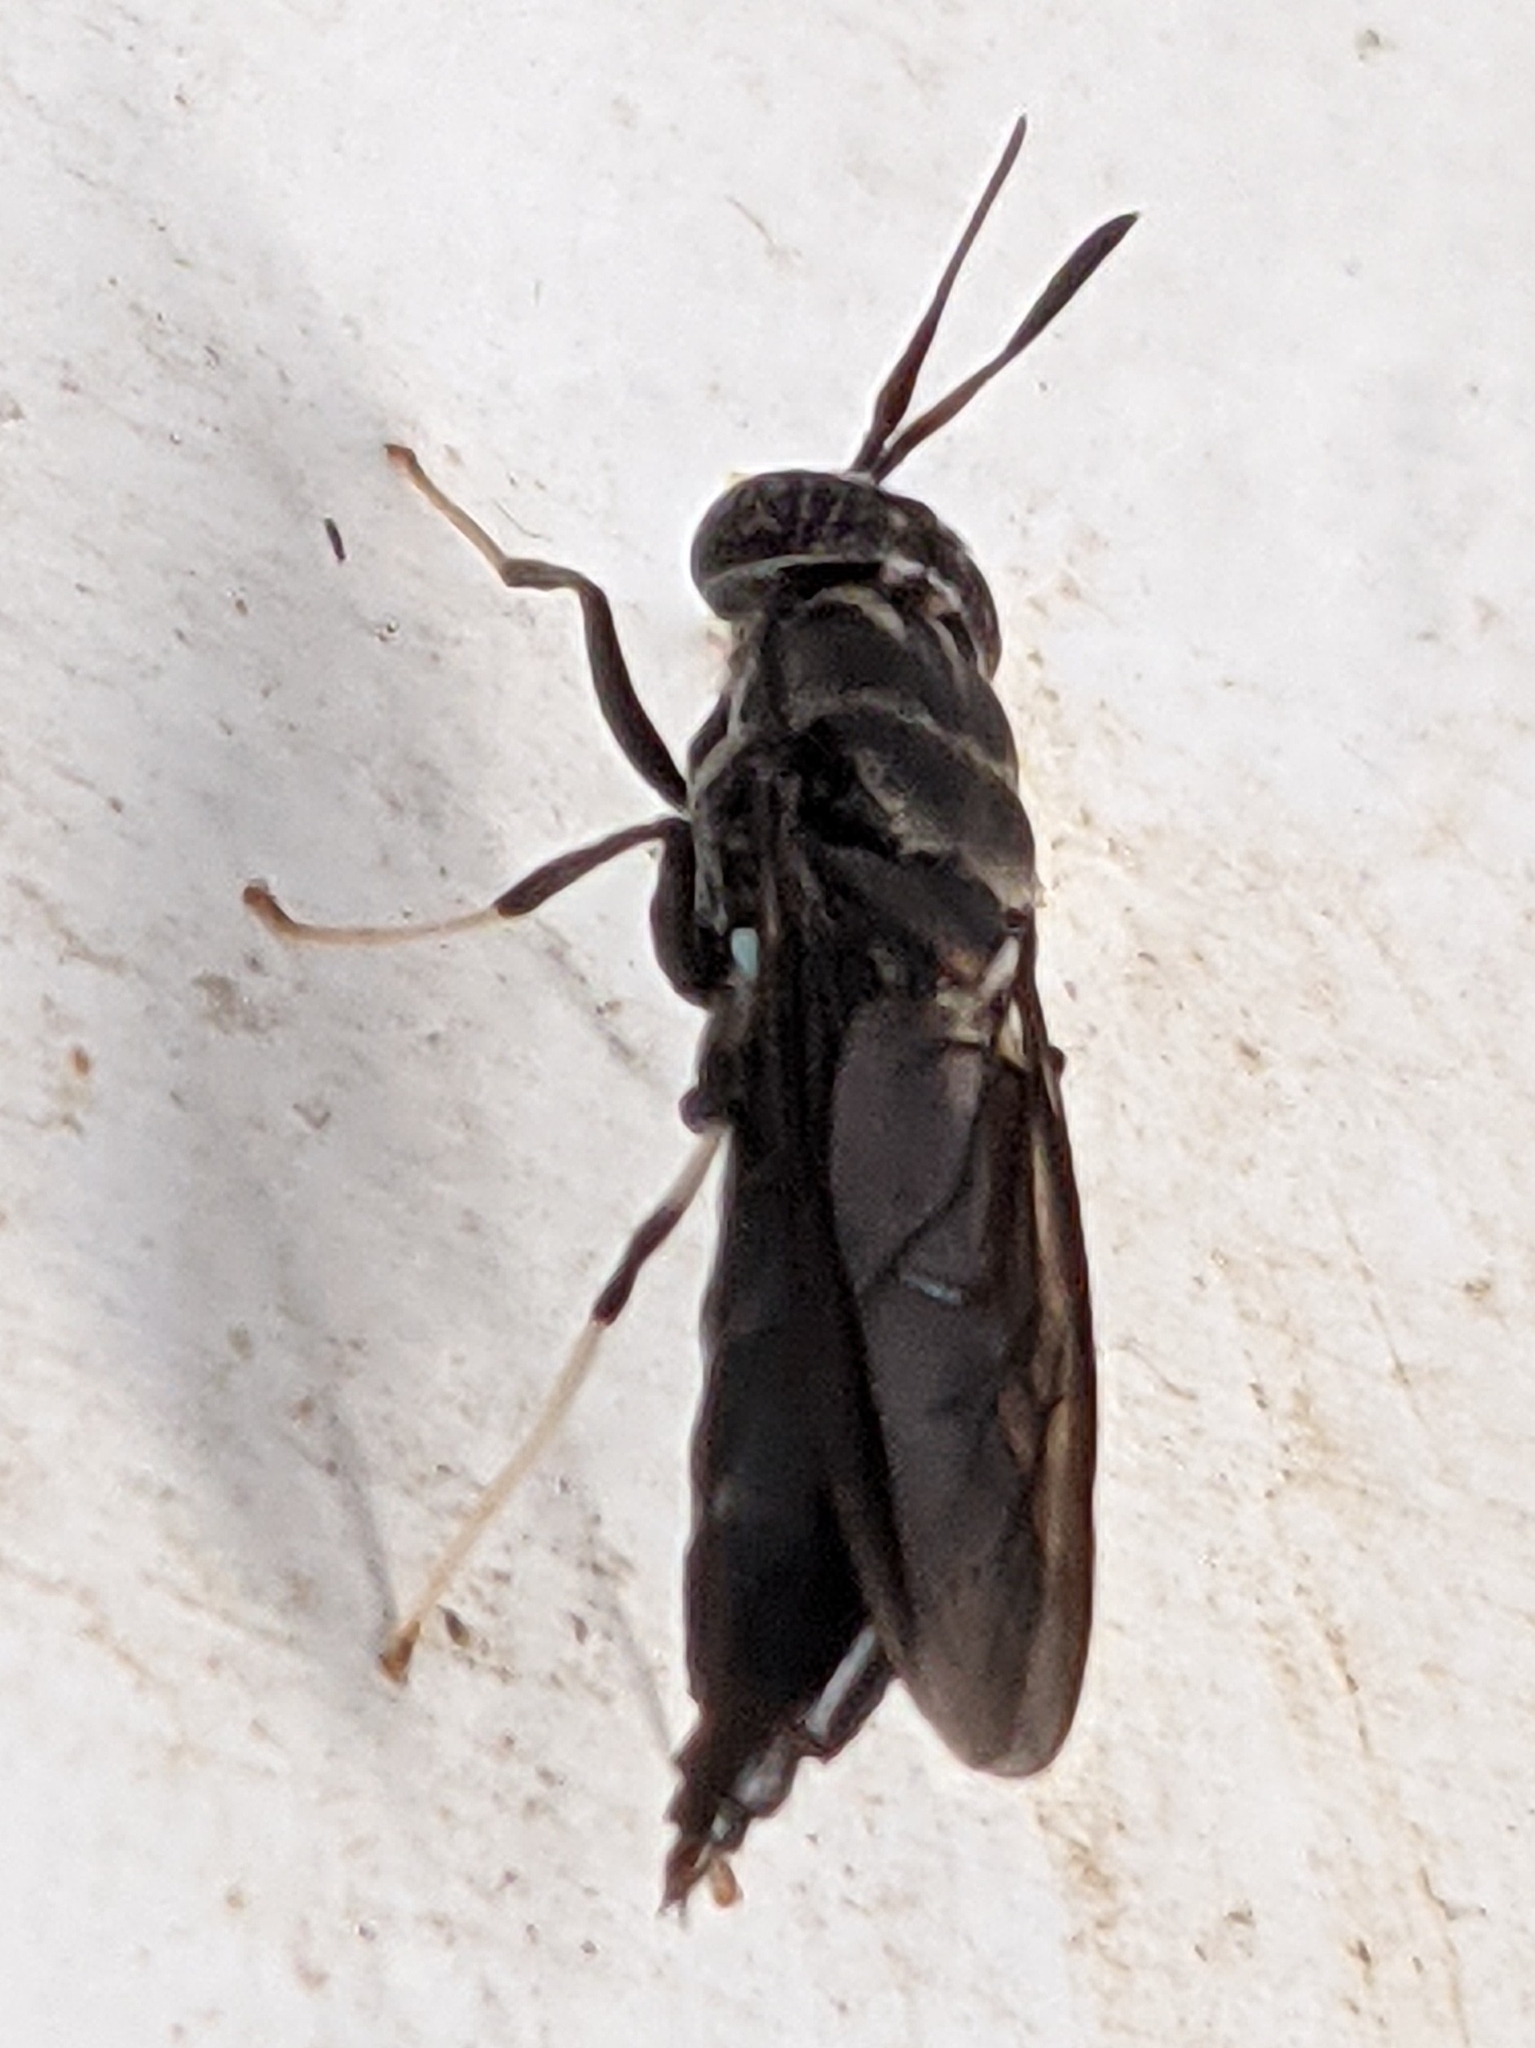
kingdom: Animalia
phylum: Arthropoda
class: Insecta
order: Diptera
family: Stratiomyidae
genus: Hermetia
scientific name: Hermetia illucens
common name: Black soldier fly
